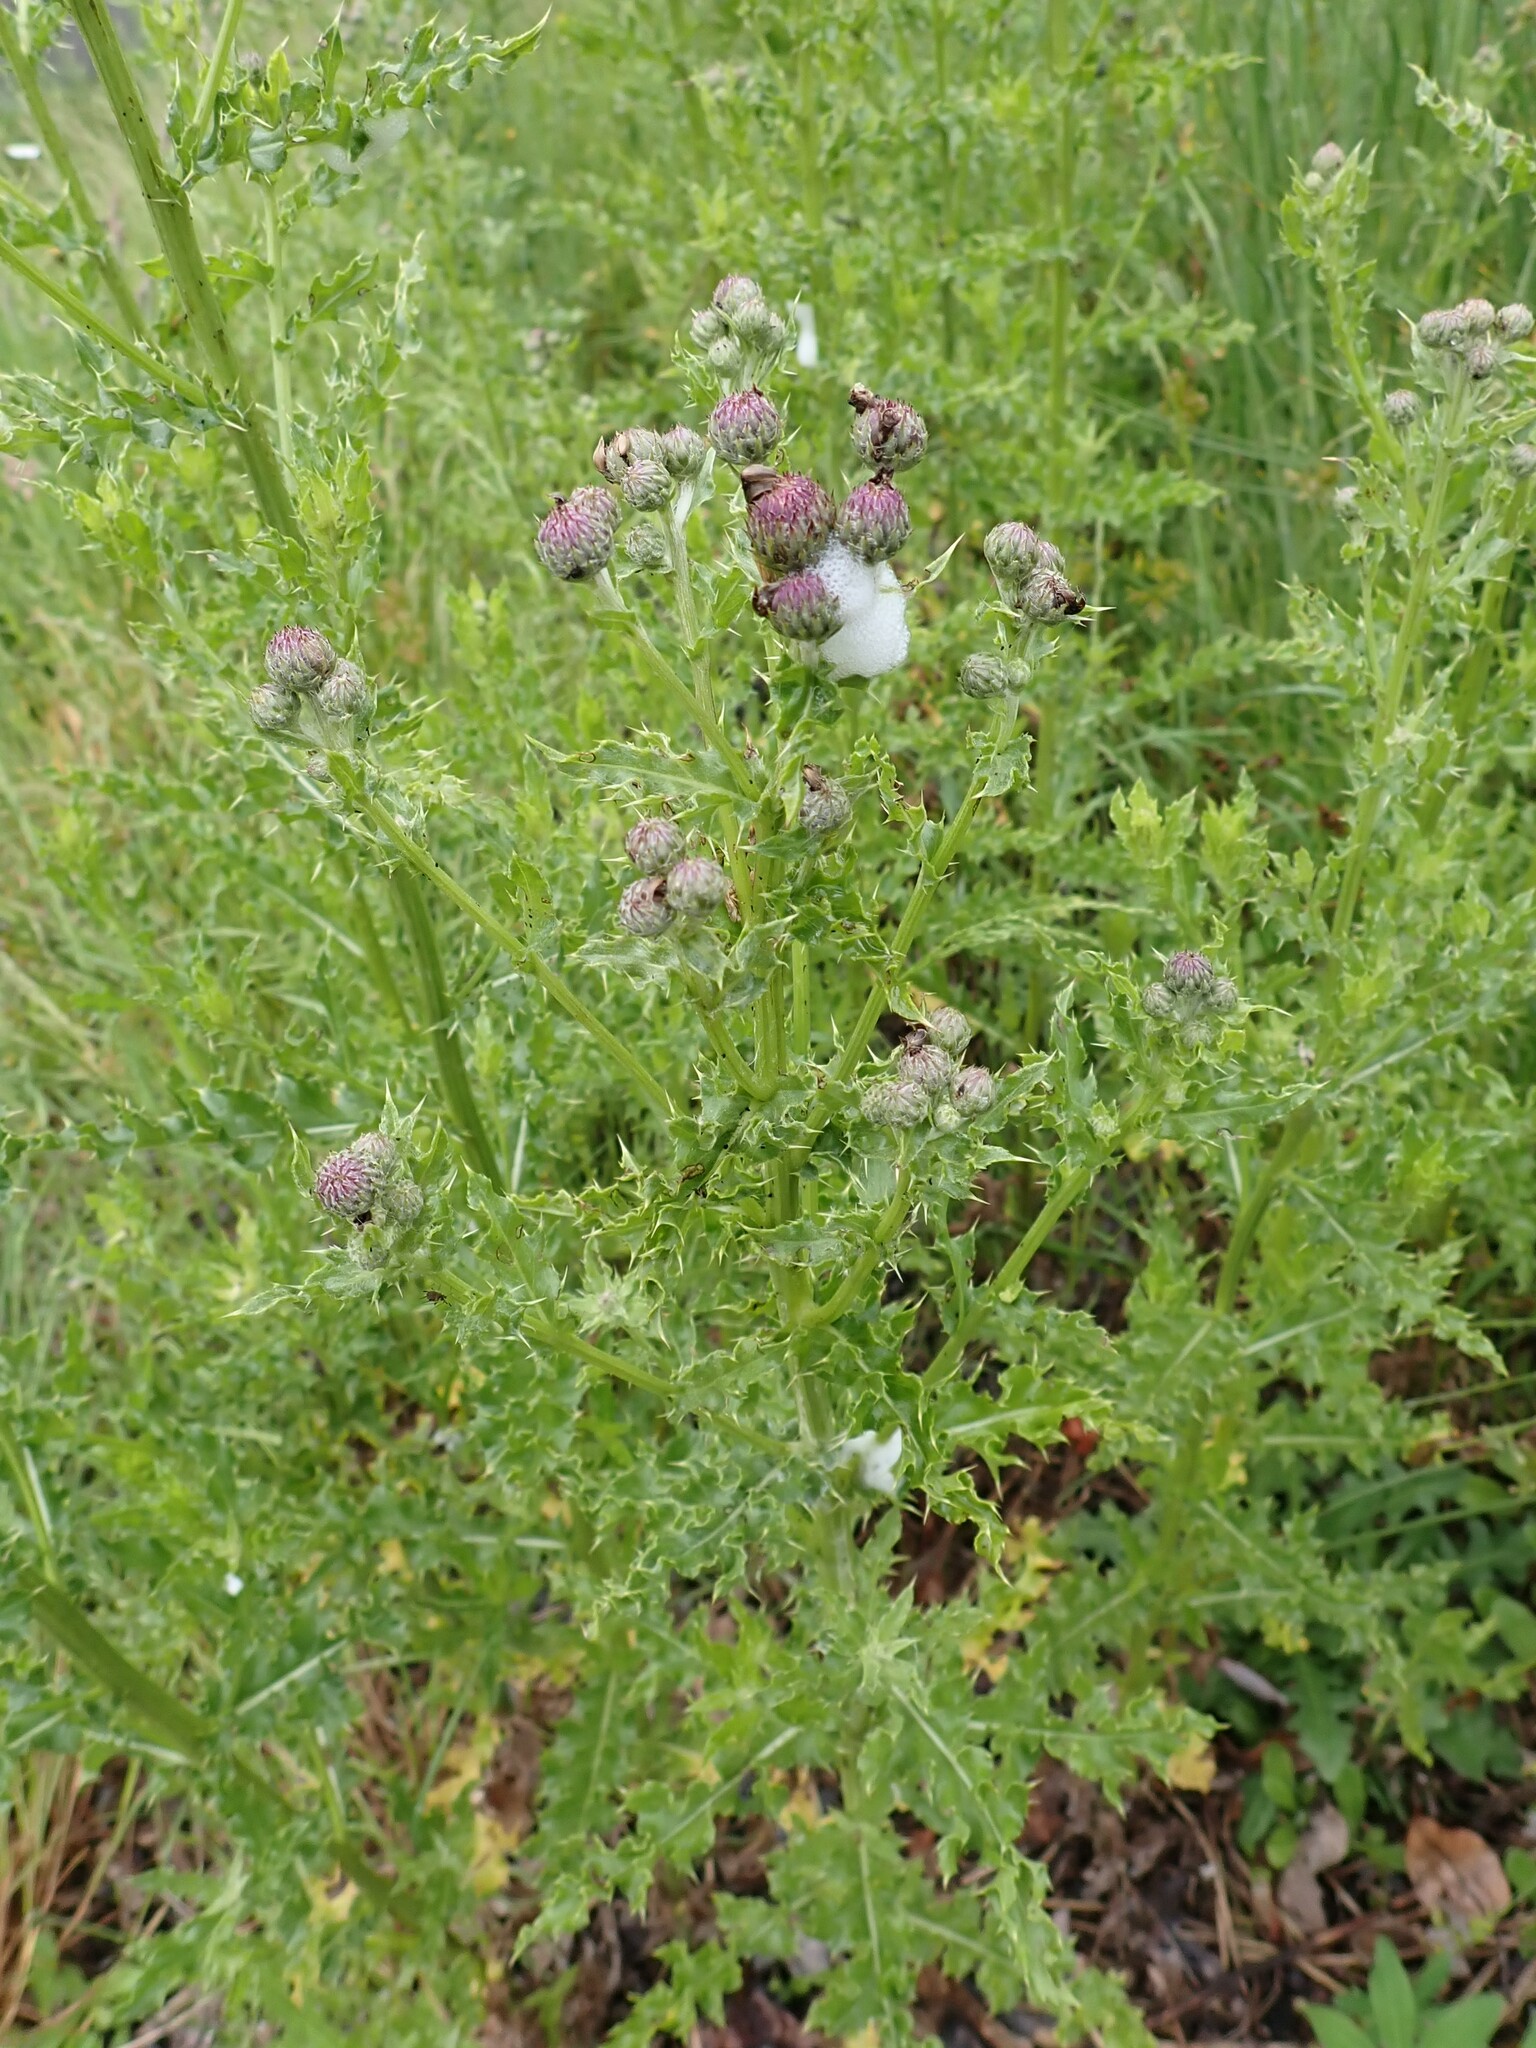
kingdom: Plantae
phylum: Tracheophyta
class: Magnoliopsida
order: Asterales
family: Asteraceae
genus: Cirsium
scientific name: Cirsium arvense
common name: Creeping thistle
